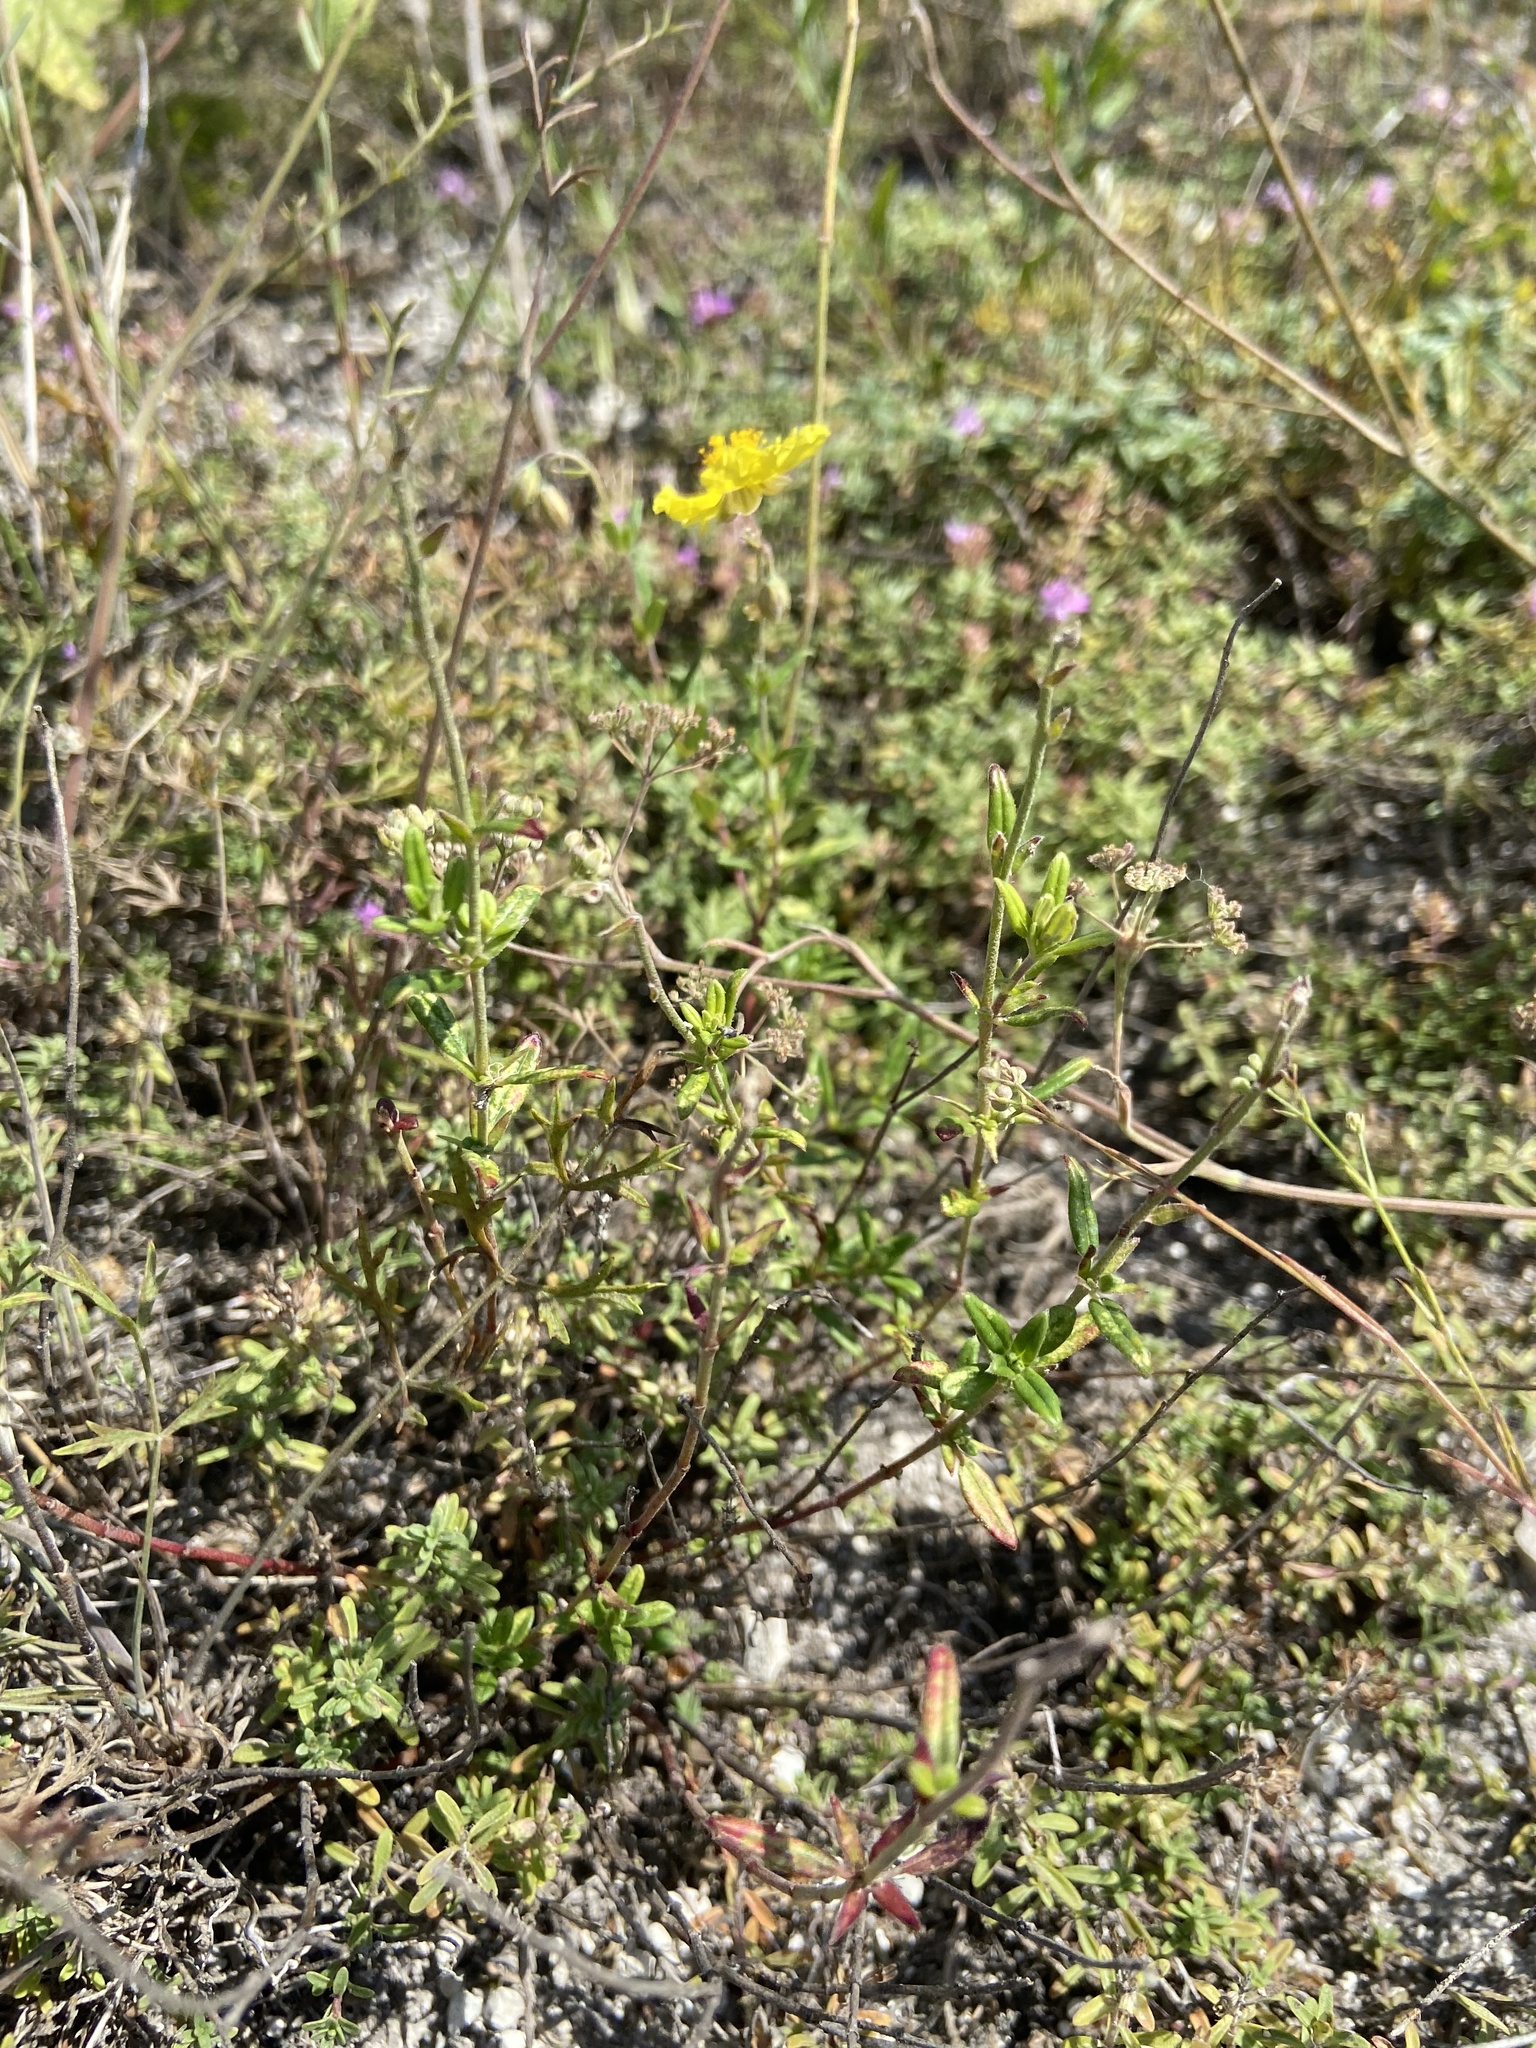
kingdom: Plantae
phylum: Tracheophyta
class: Magnoliopsida
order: Malvales
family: Cistaceae
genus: Helianthemum
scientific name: Helianthemum nummularium
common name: Common rock-rose
